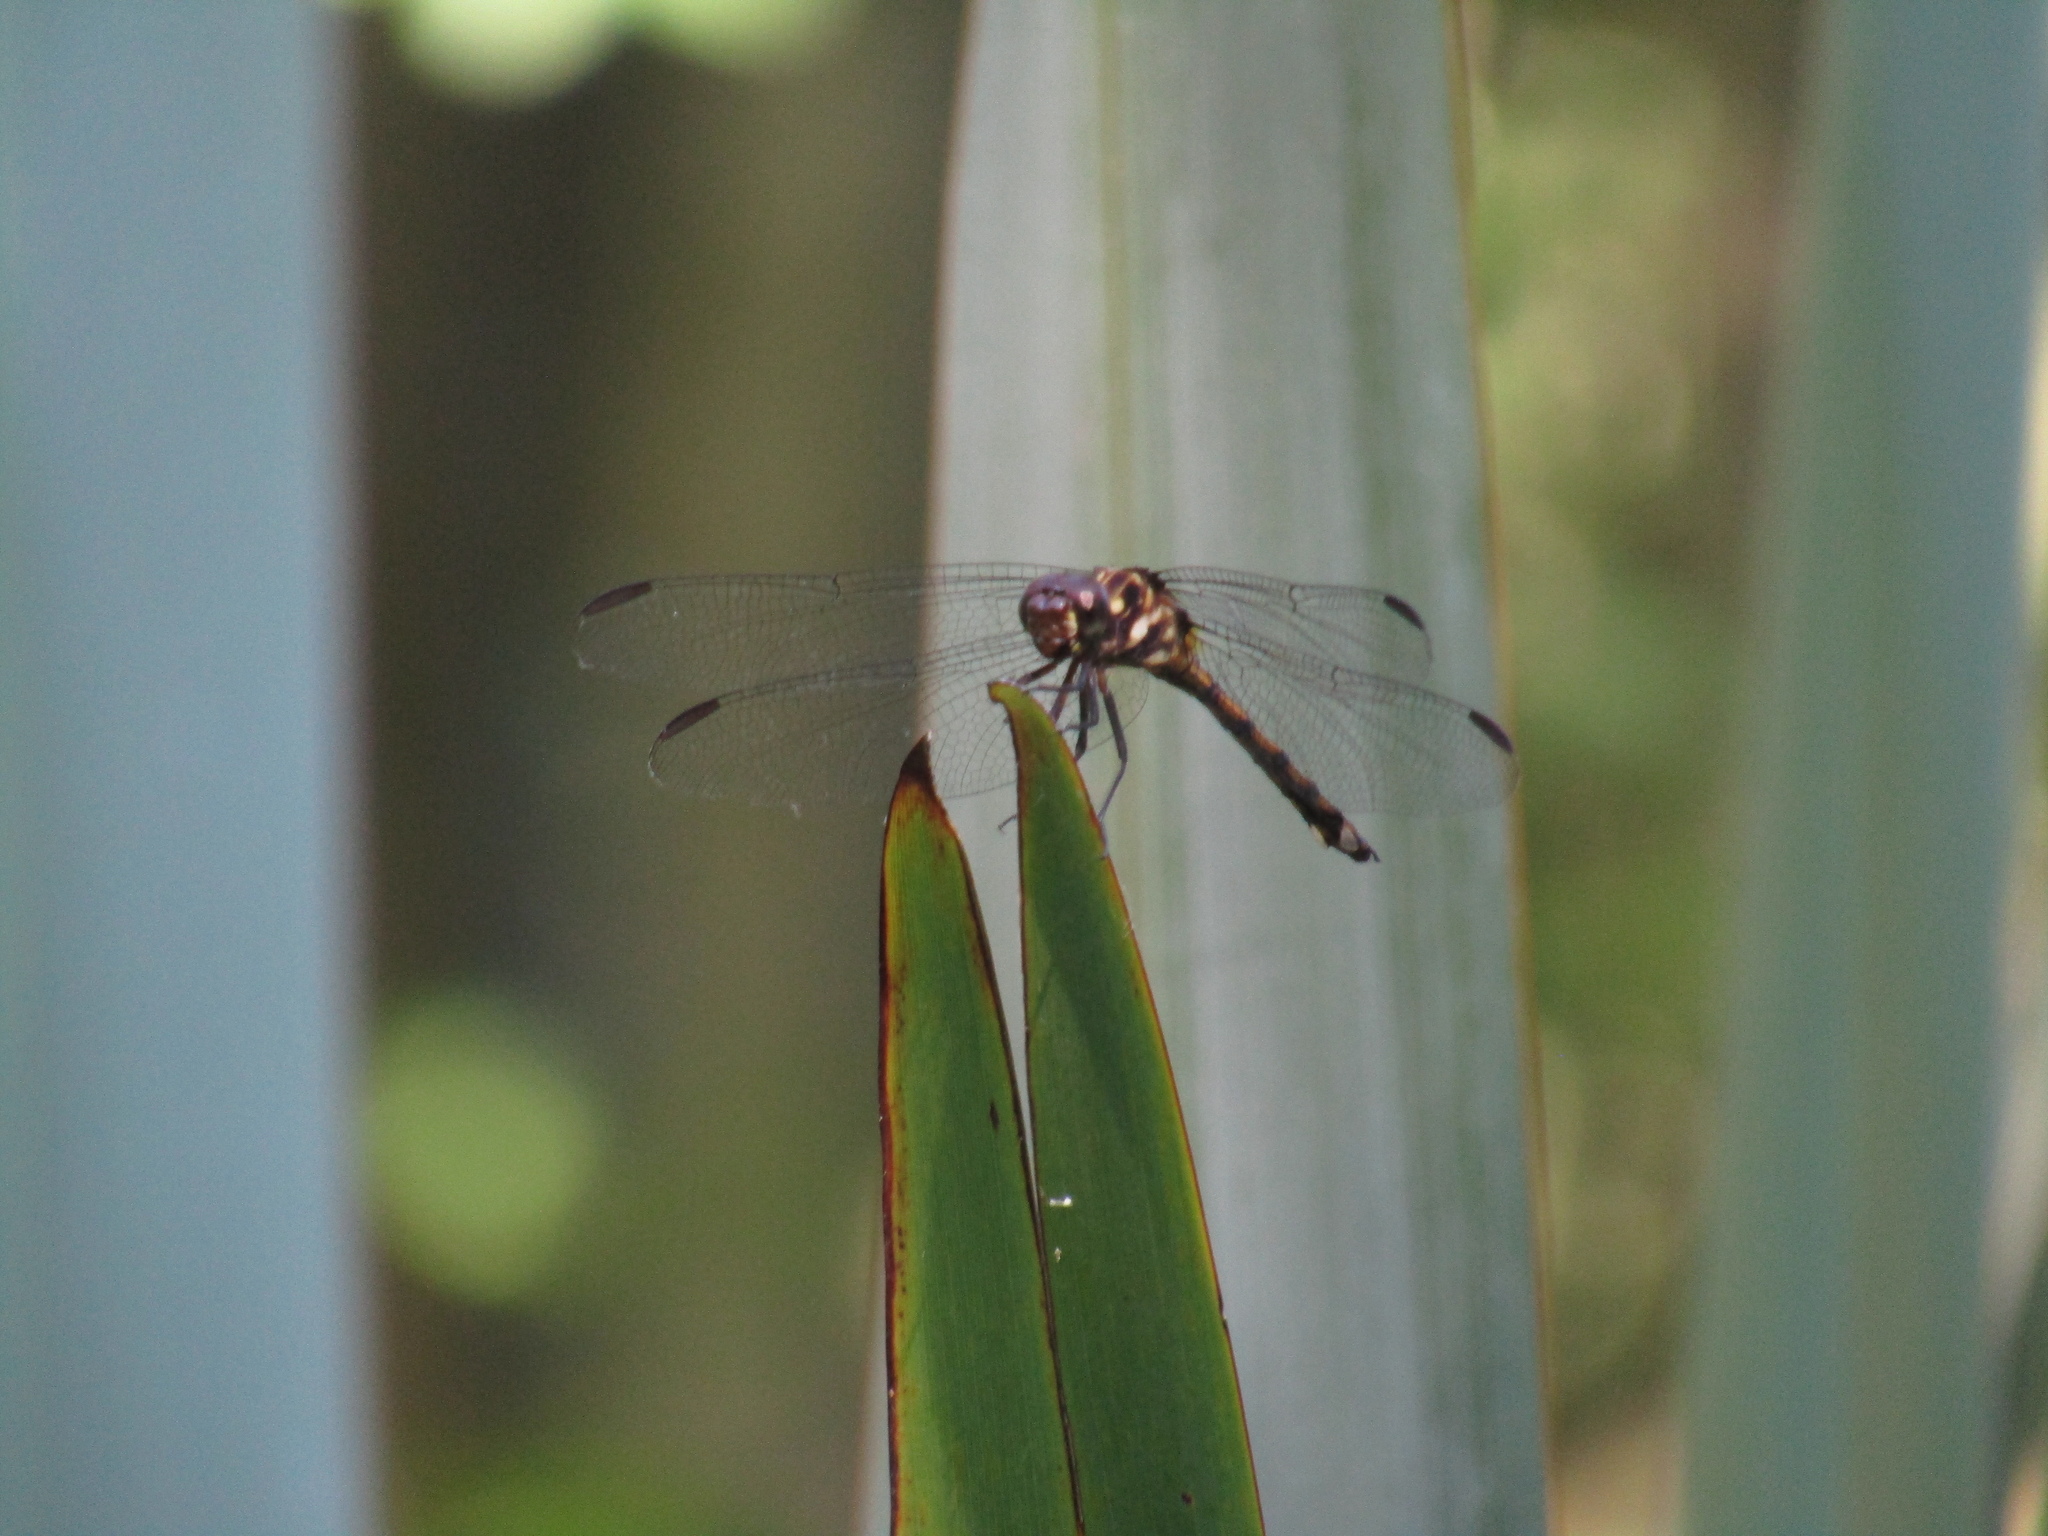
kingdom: Animalia
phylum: Arthropoda
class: Insecta
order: Odonata
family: Libellulidae
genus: Orthemis
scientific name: Orthemis ambinigra
